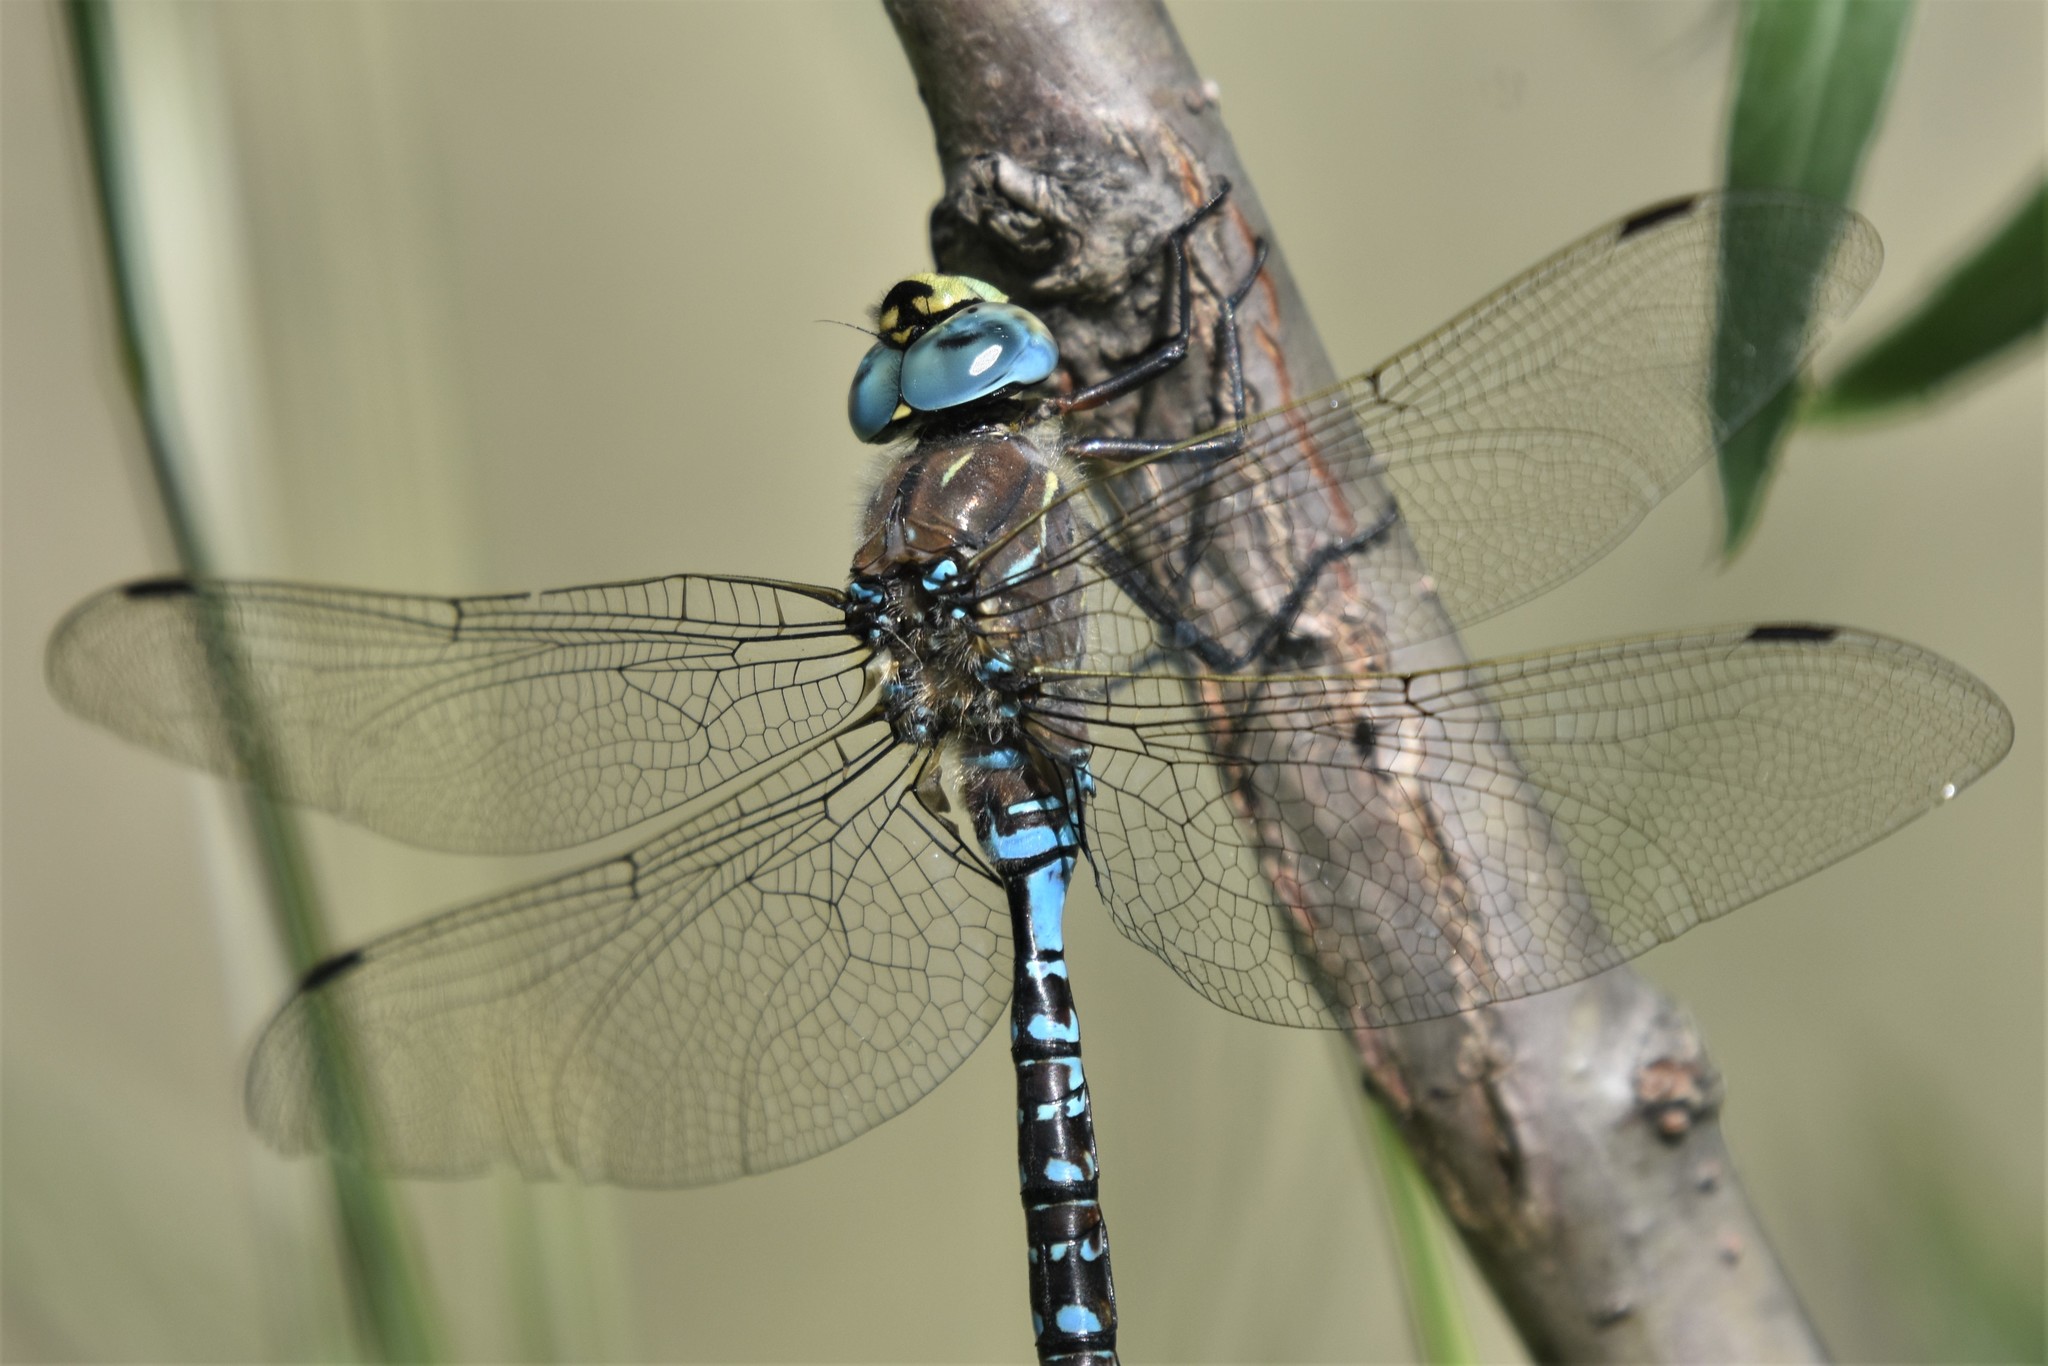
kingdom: Animalia
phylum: Arthropoda
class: Insecta
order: Odonata
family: Aeshnidae
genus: Aeshna
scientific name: Aeshna interrupta
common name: Variable darner
